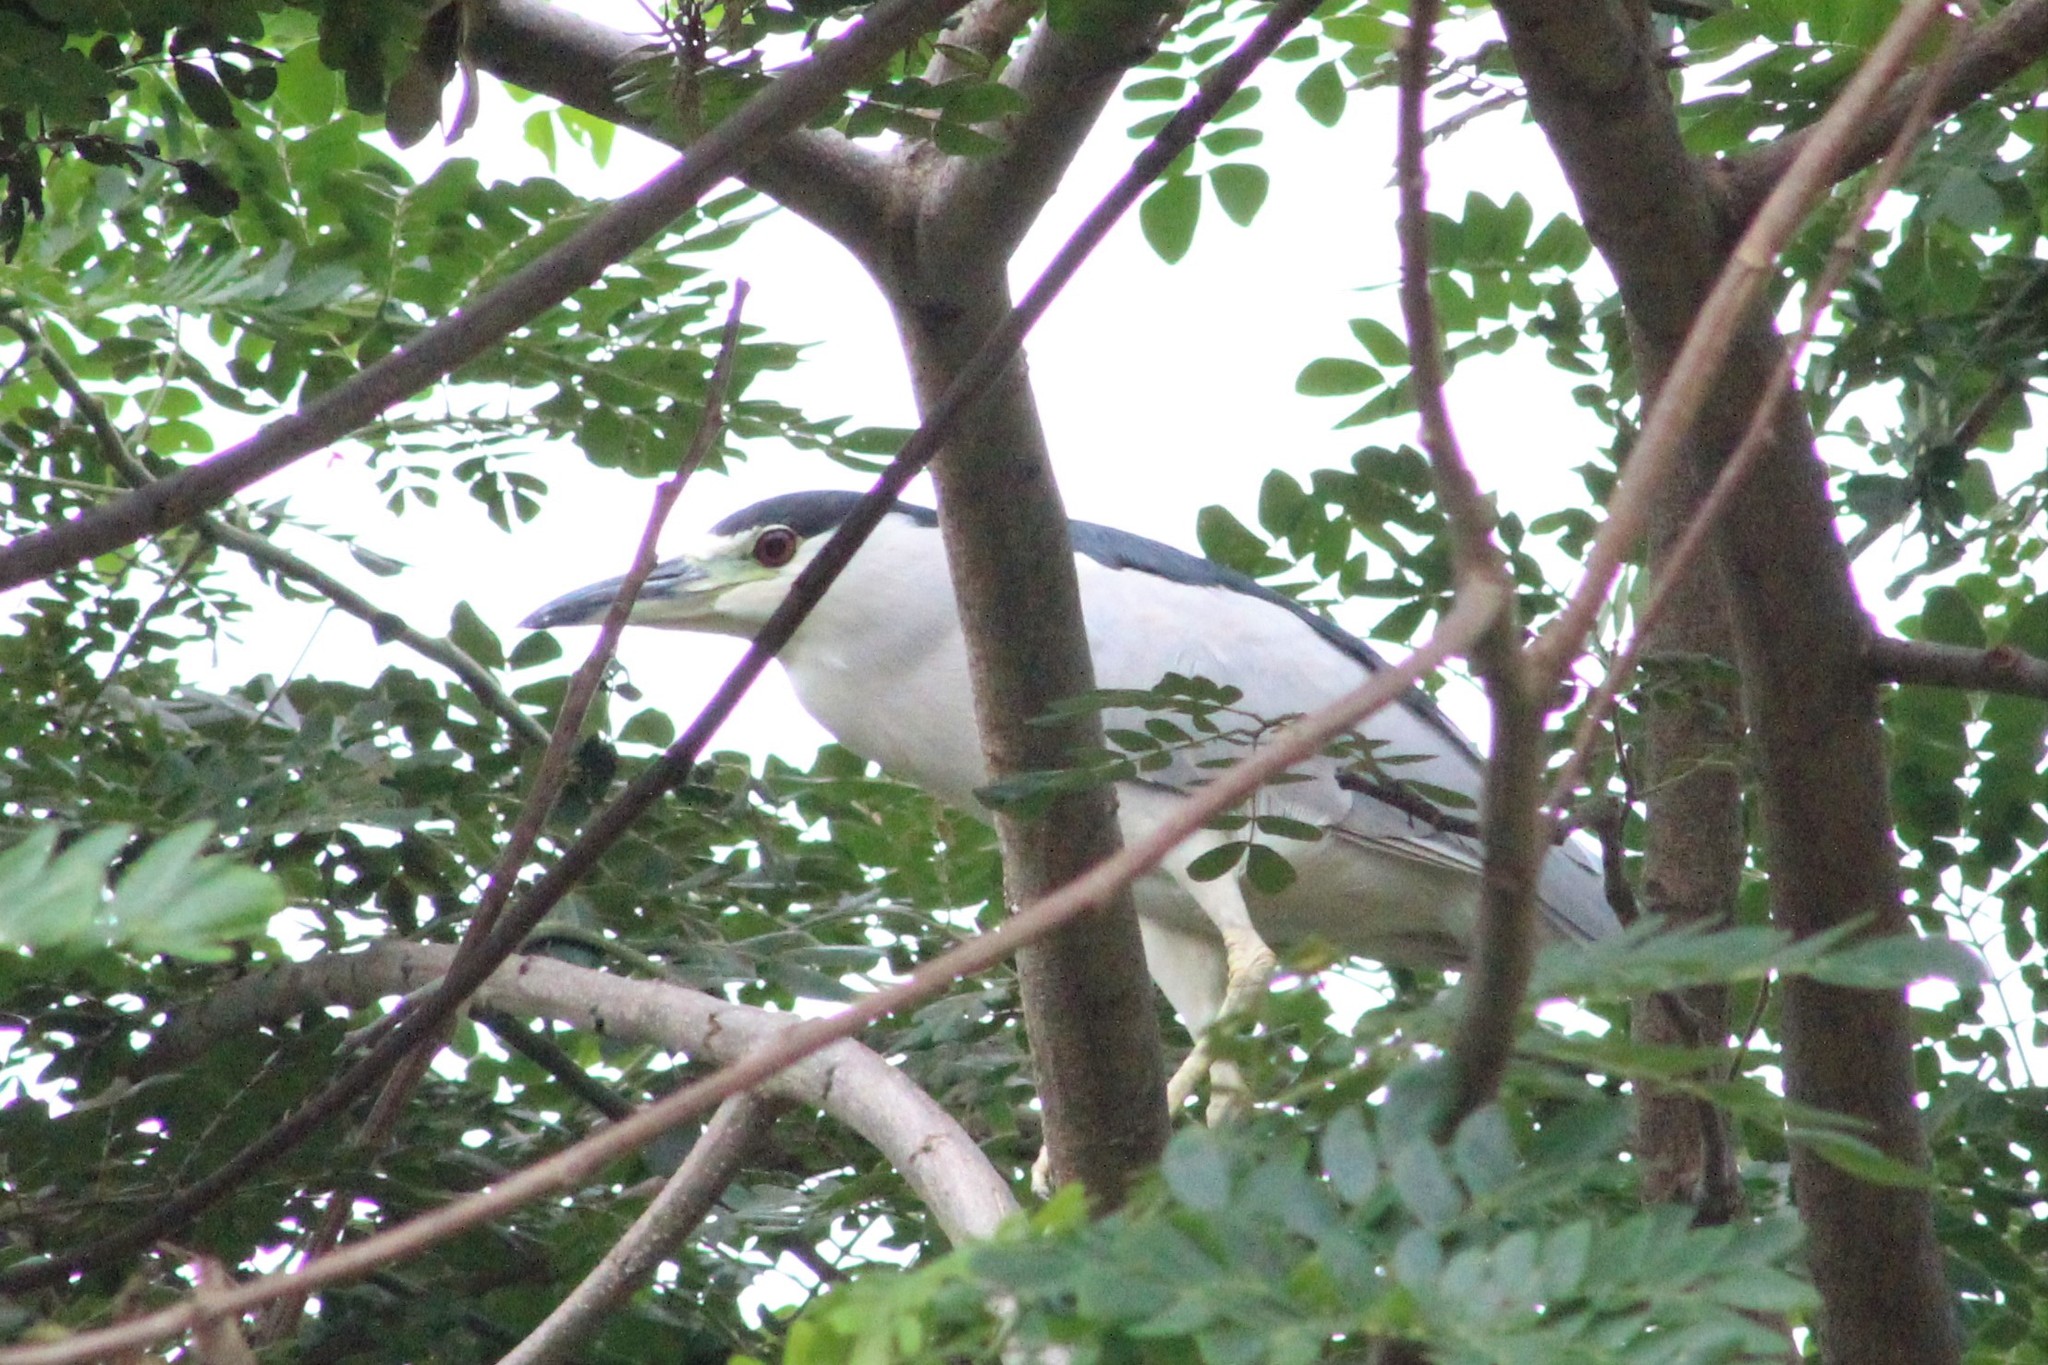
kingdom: Animalia
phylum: Chordata
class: Aves
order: Pelecaniformes
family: Ardeidae
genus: Nycticorax
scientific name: Nycticorax nycticorax
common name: Black-crowned night heron
